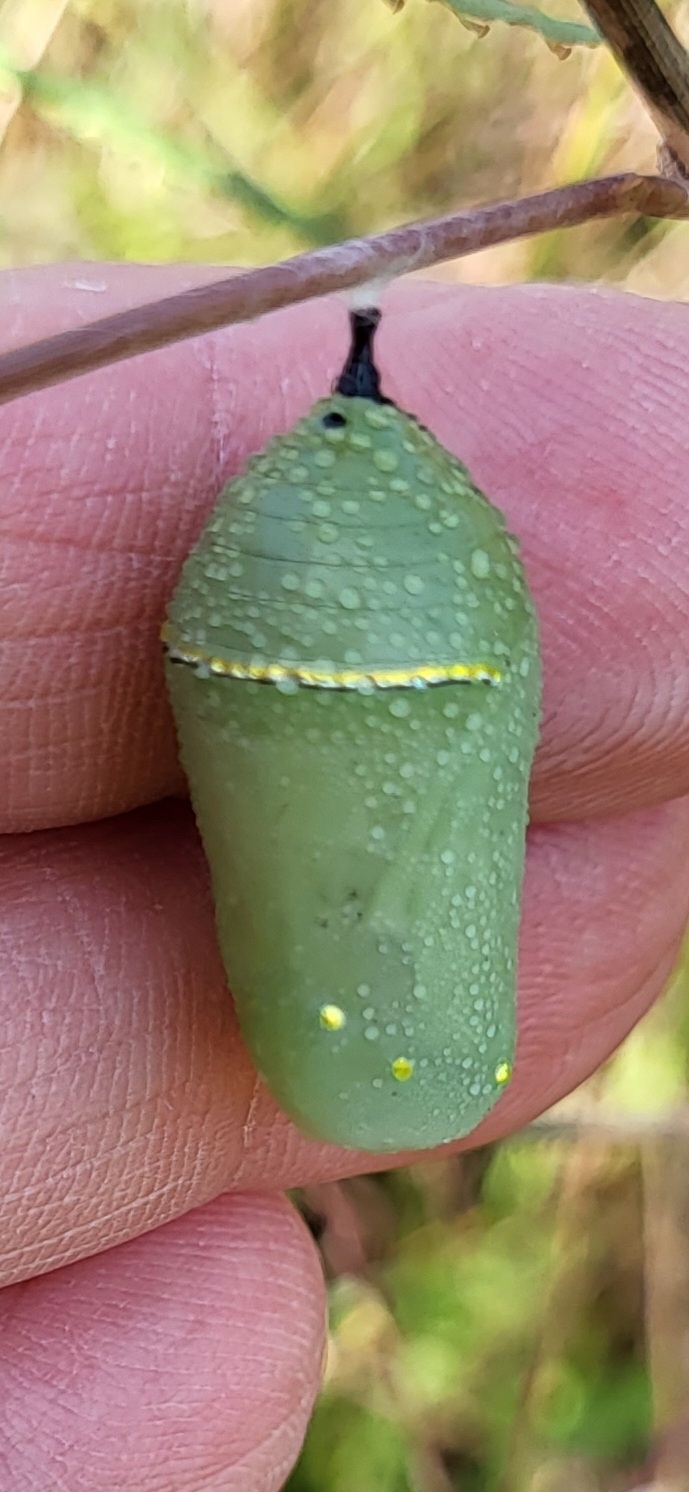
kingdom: Animalia
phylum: Arthropoda
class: Insecta
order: Lepidoptera
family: Nymphalidae
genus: Danaus
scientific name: Danaus plexippus
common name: Monarch
